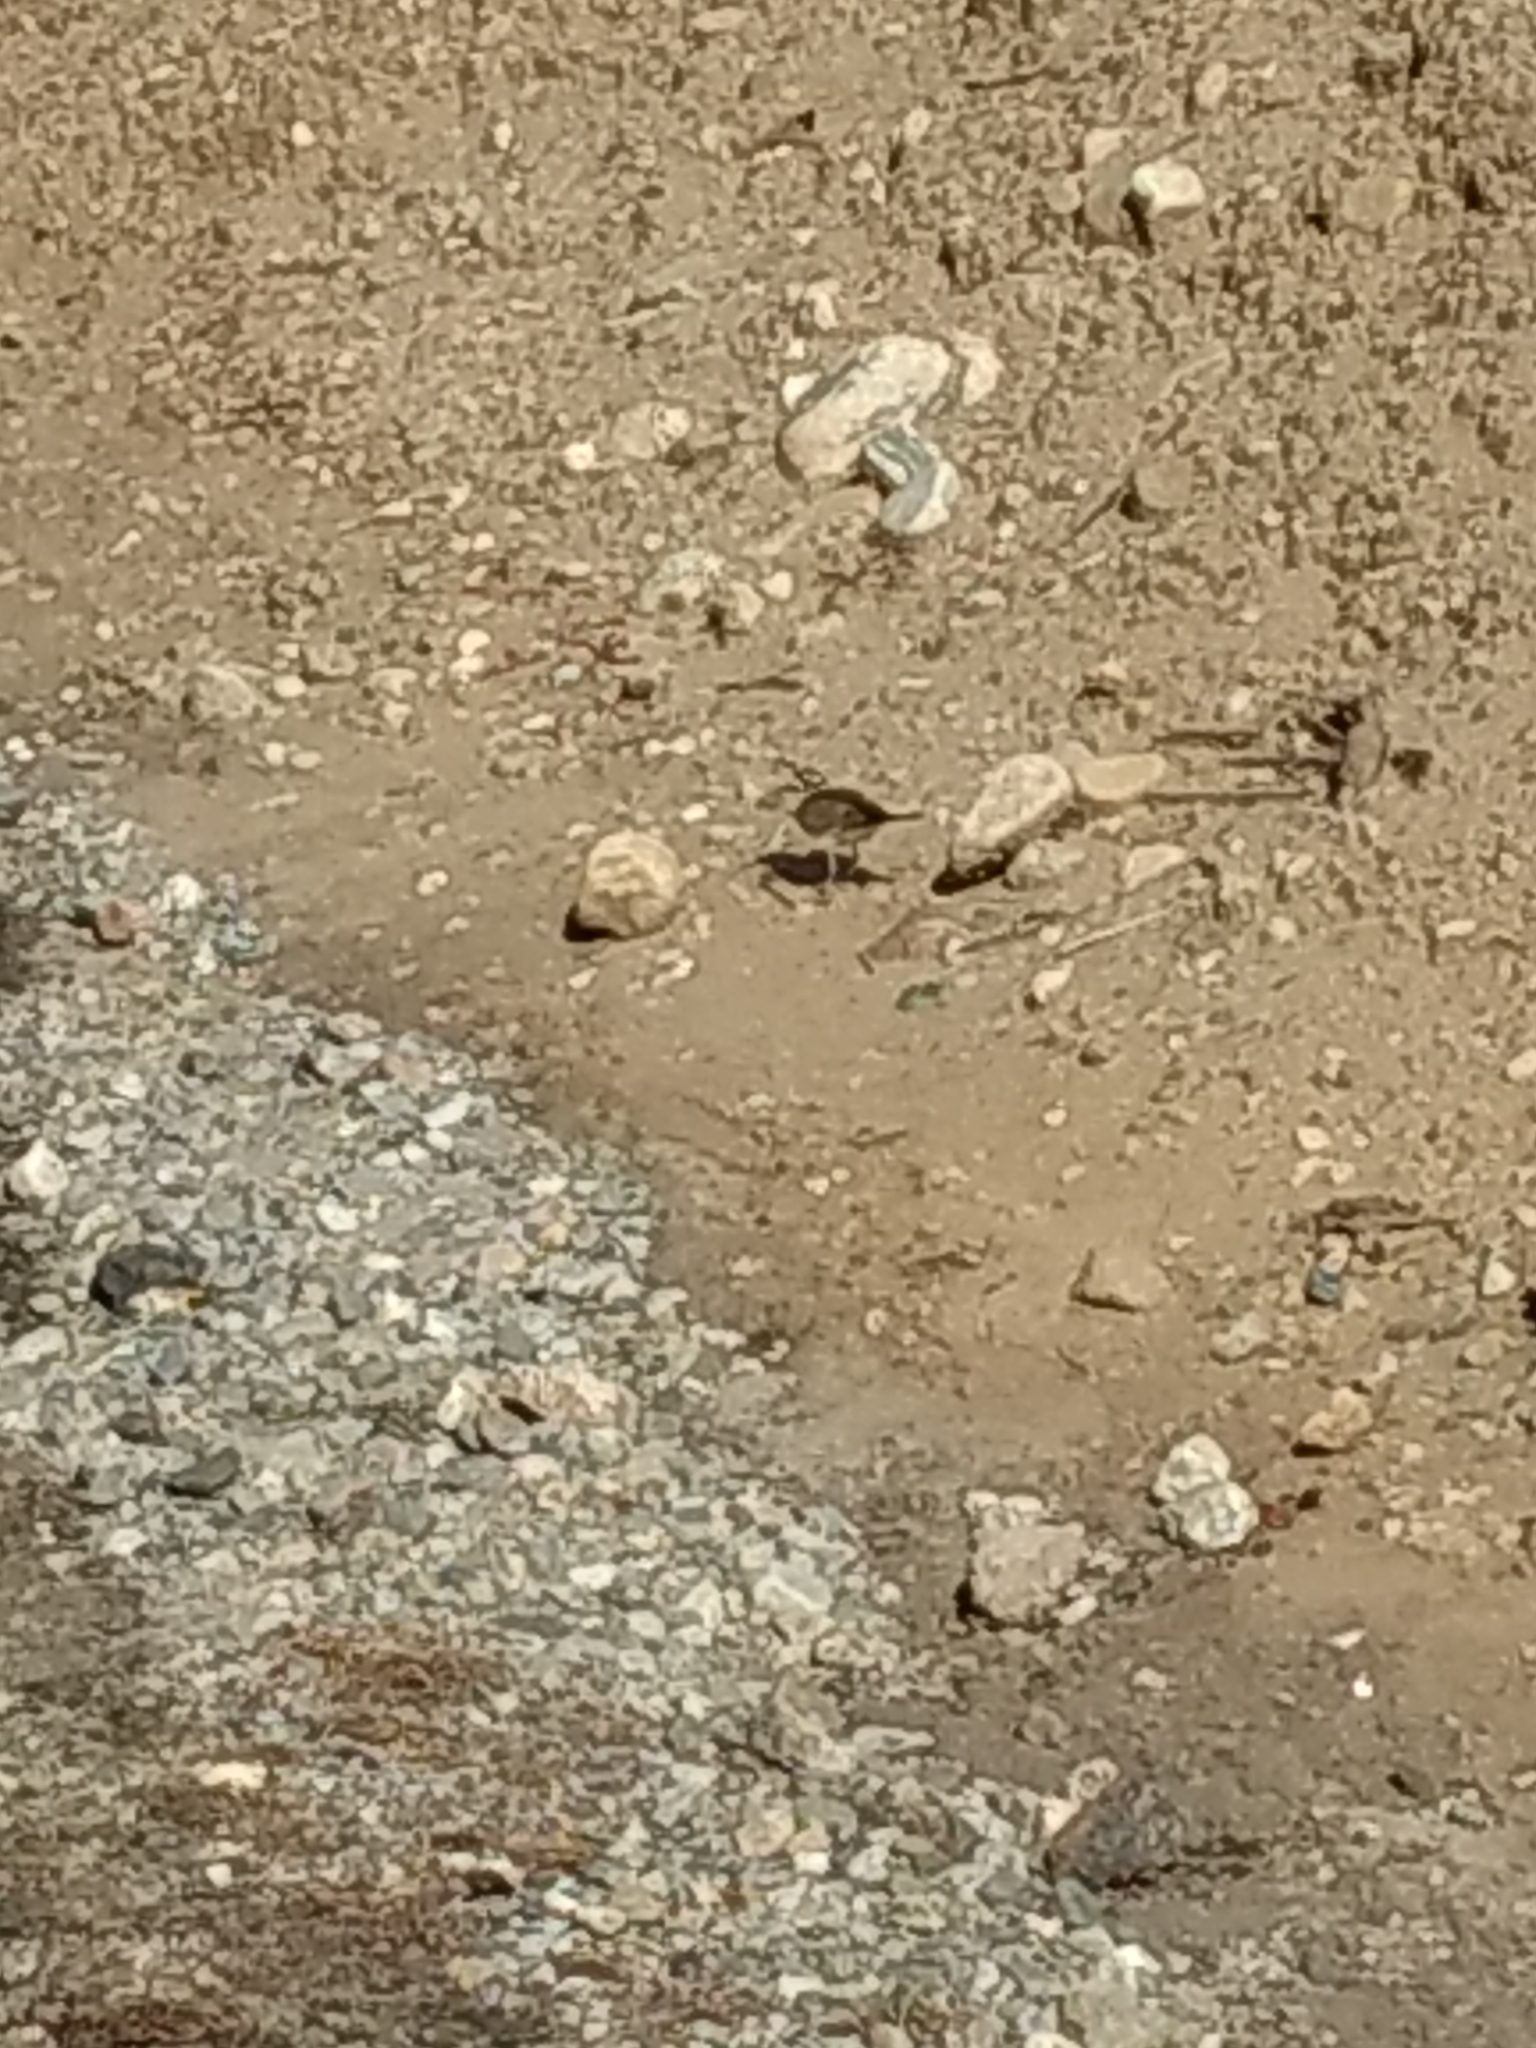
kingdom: Animalia
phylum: Chordata
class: Aves
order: Charadriiformes
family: Charadriidae
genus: Charadrius
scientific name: Charadrius vociferus
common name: Killdeer
